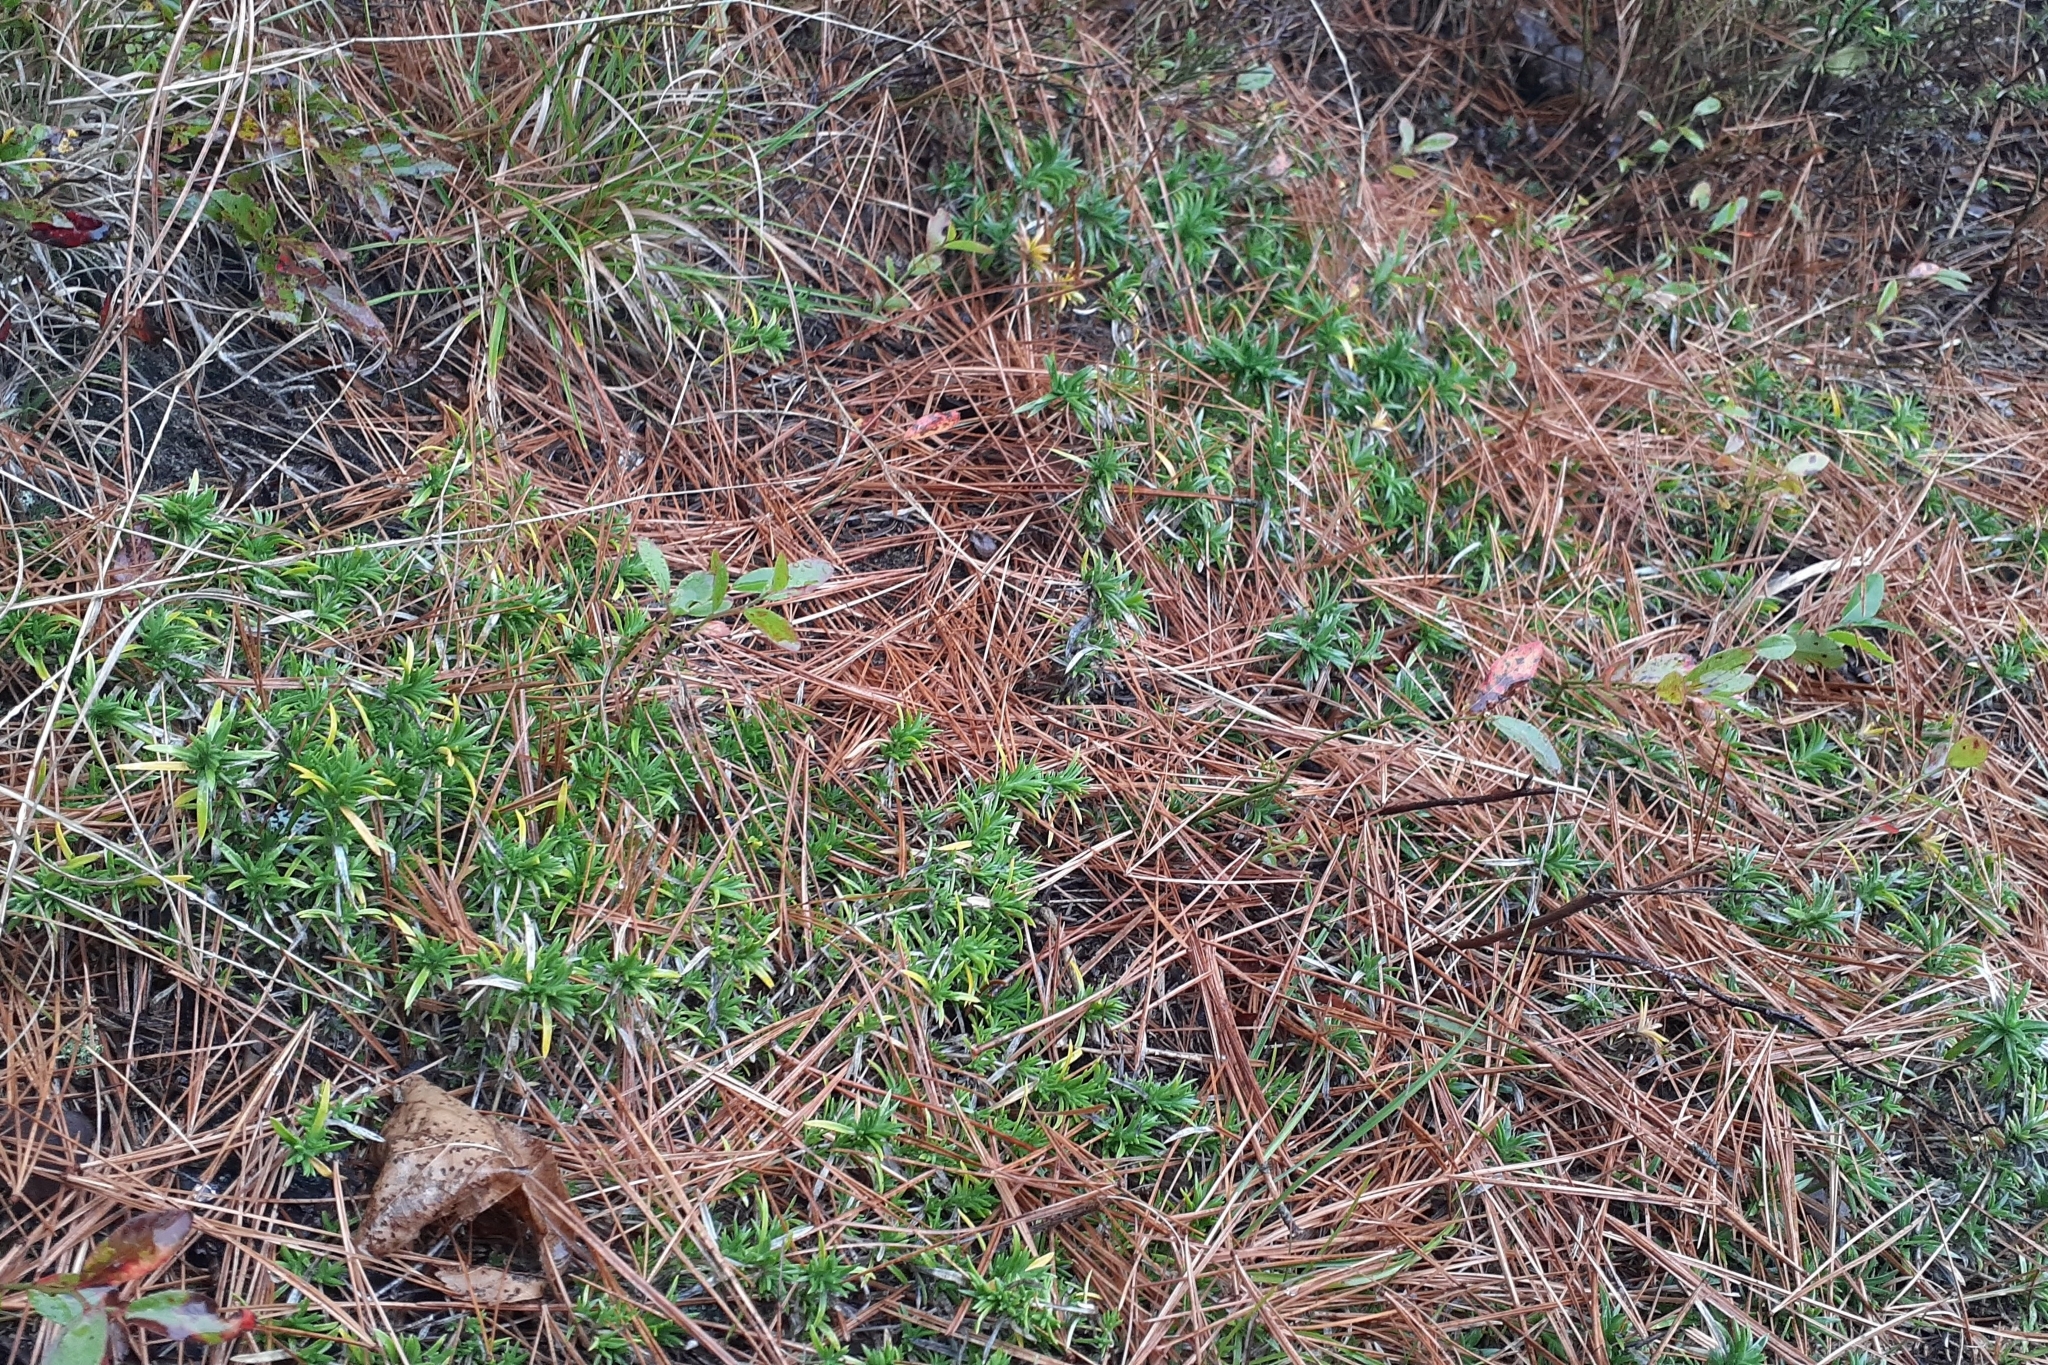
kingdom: Plantae
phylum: Tracheophyta
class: Magnoliopsida
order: Ericales
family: Polemoniaceae
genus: Phlox
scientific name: Phlox subulata
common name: Moss phlox
